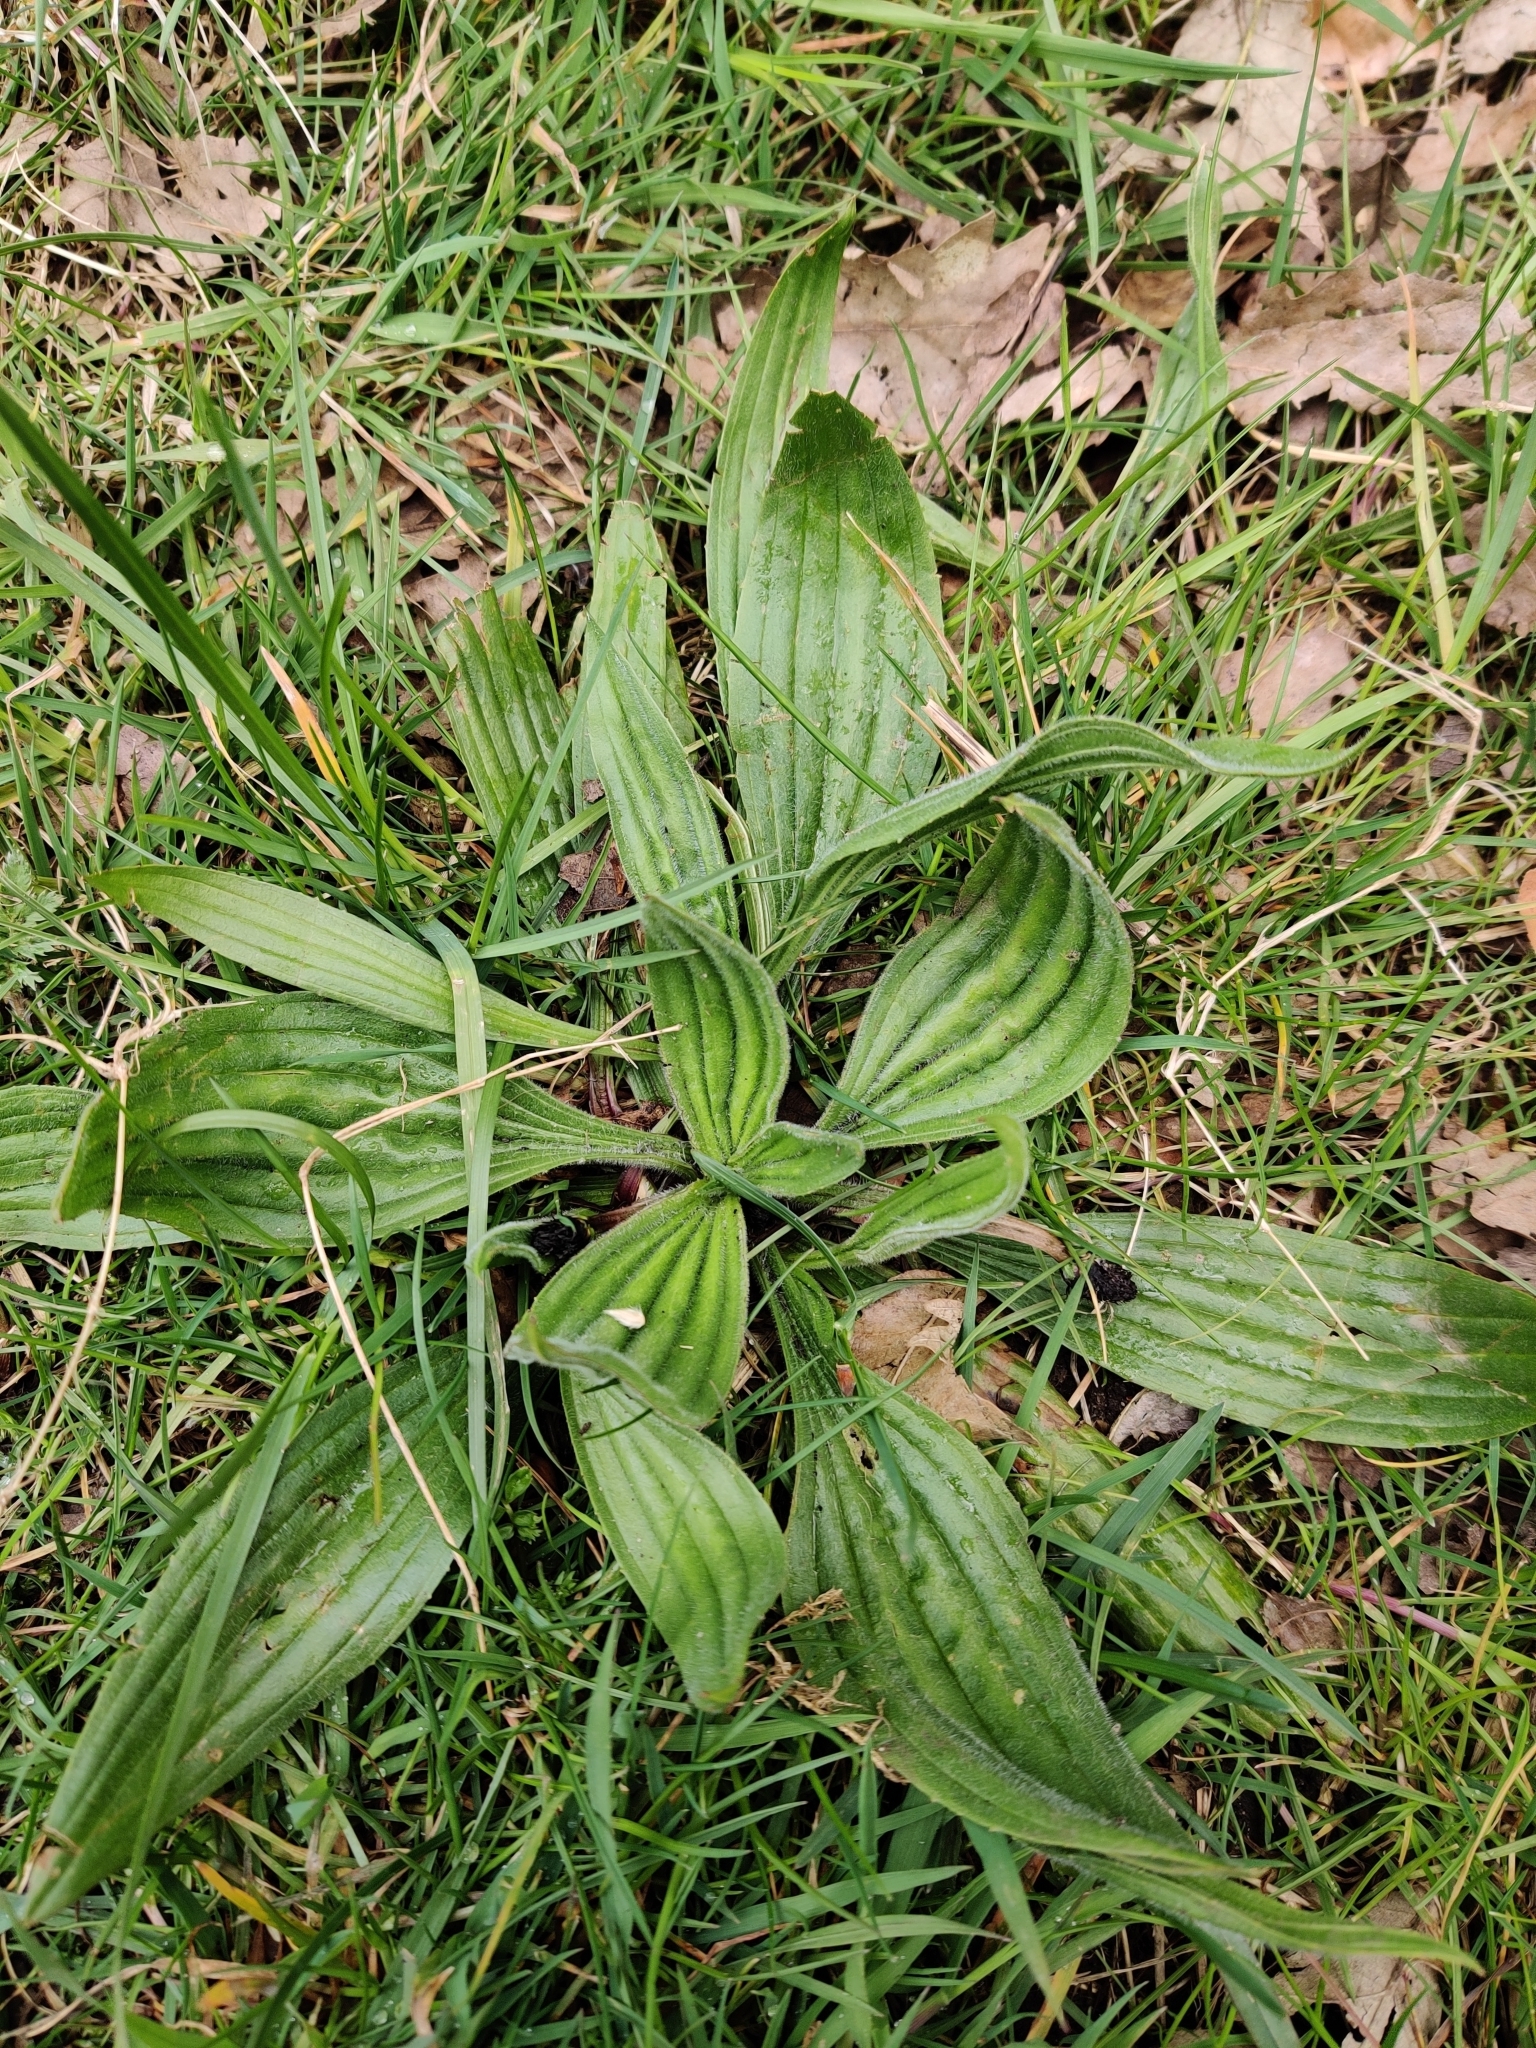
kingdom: Plantae
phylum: Tracheophyta
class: Magnoliopsida
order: Lamiales
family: Plantaginaceae
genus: Plantago
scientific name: Plantago lanceolata
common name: Ribwort plantain
